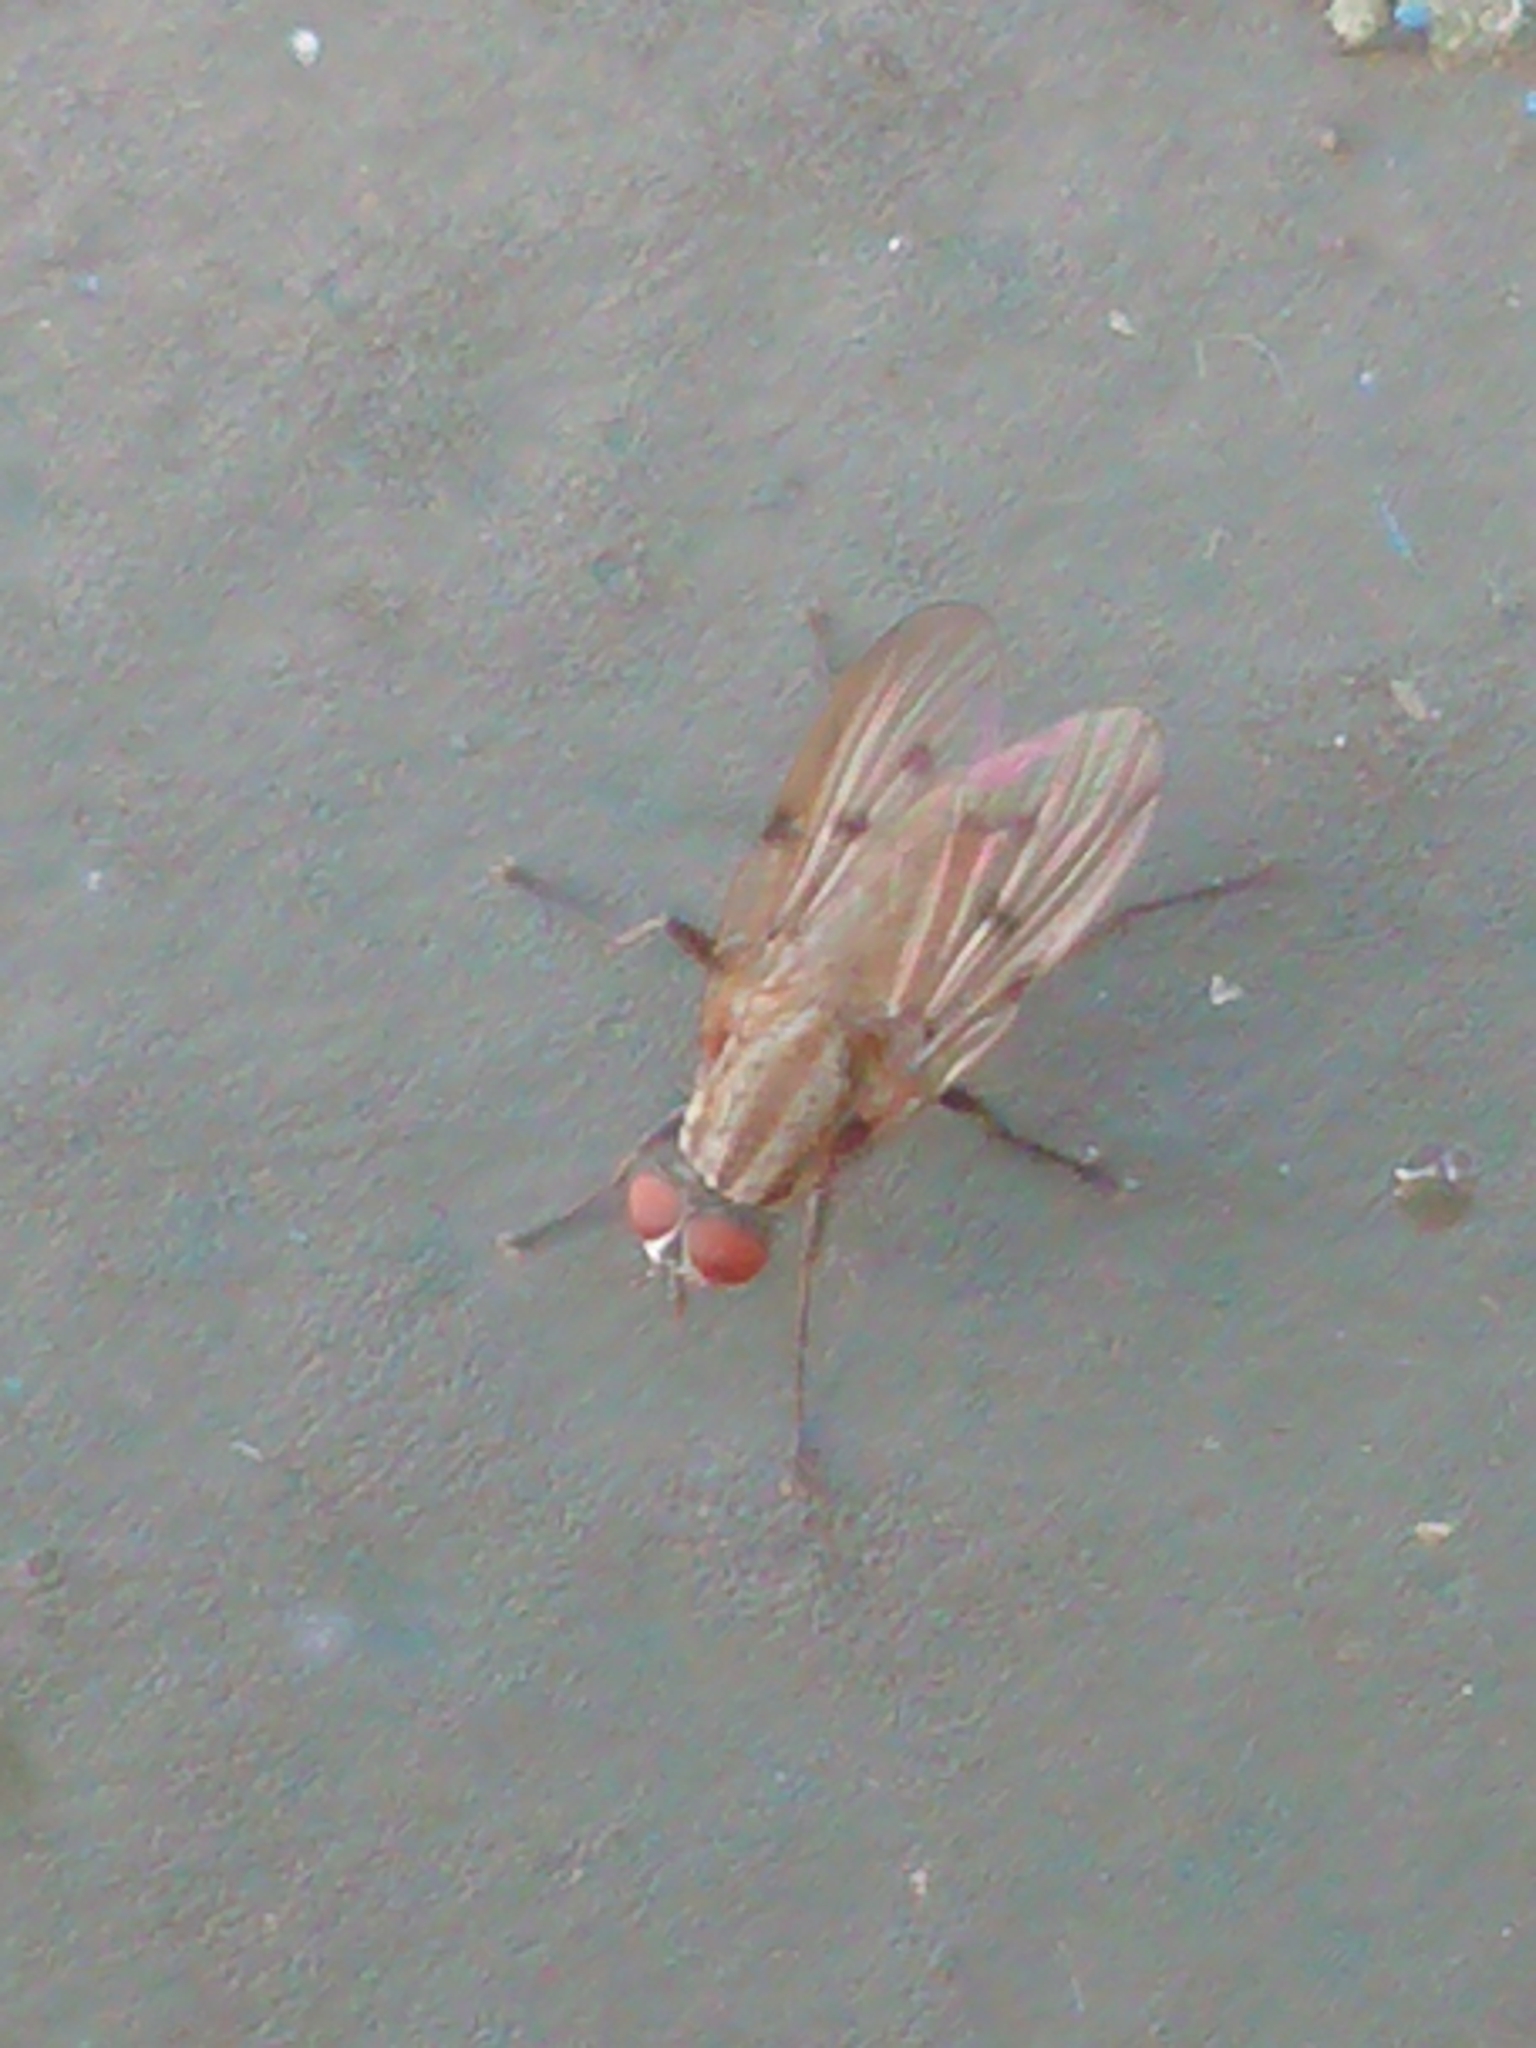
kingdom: Animalia
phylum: Arthropoda
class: Insecta
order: Diptera
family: Anthomyiidae
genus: Anthomyia
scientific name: Anthomyia punctipennis
